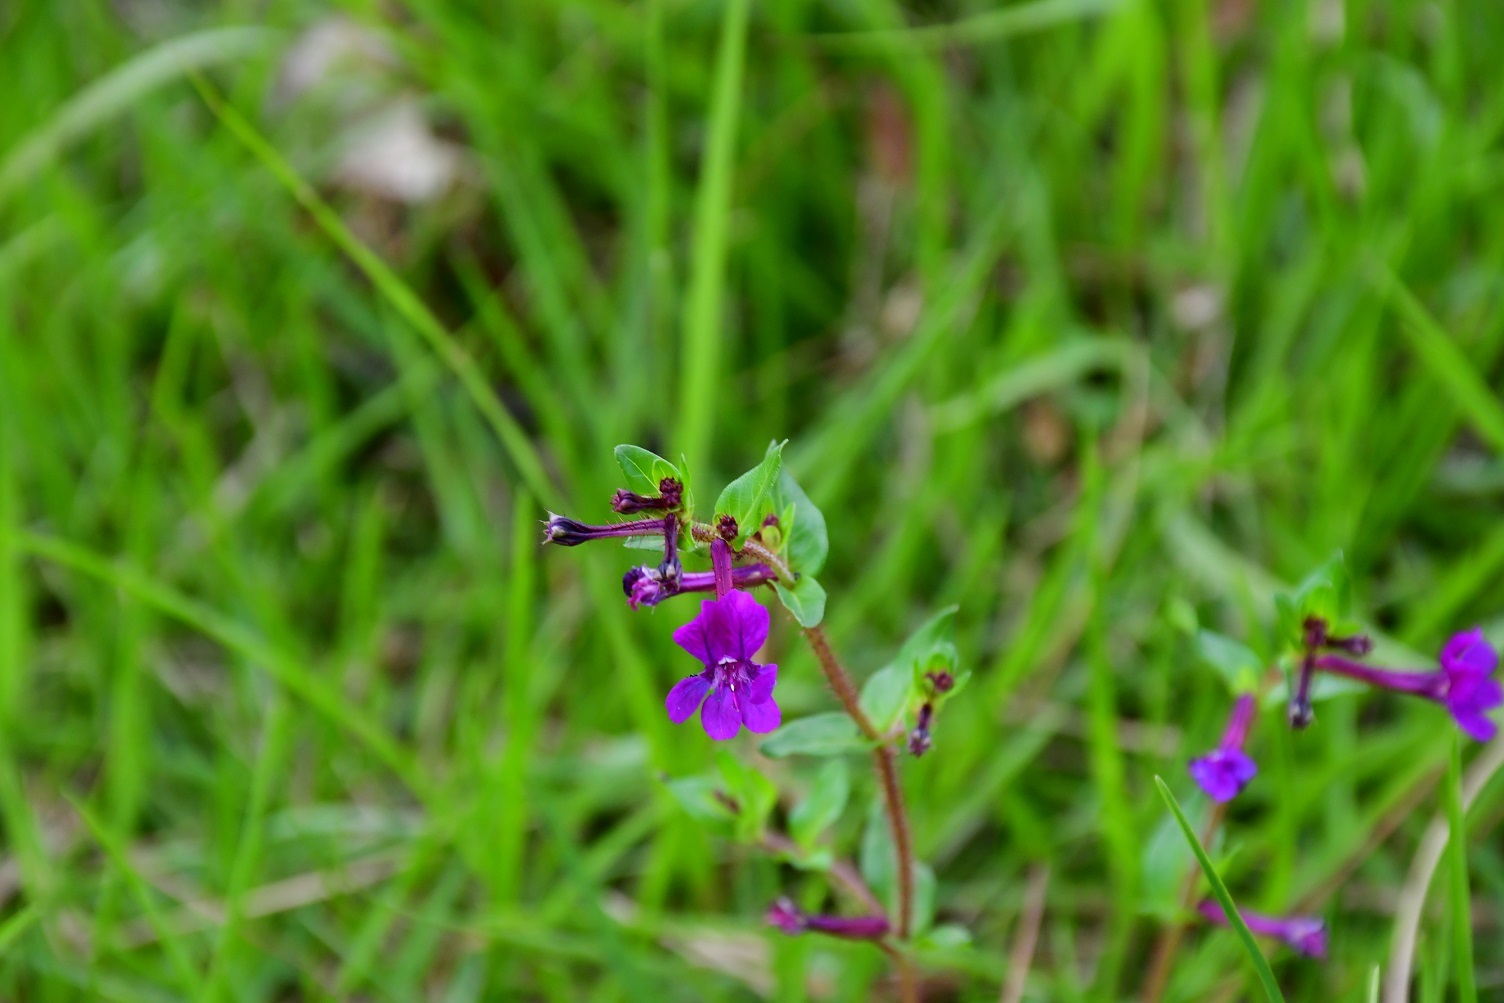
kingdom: Plantae
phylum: Tracheophyta
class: Magnoliopsida
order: Myrtales
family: Lythraceae
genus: Cuphea
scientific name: Cuphea aequipetala
